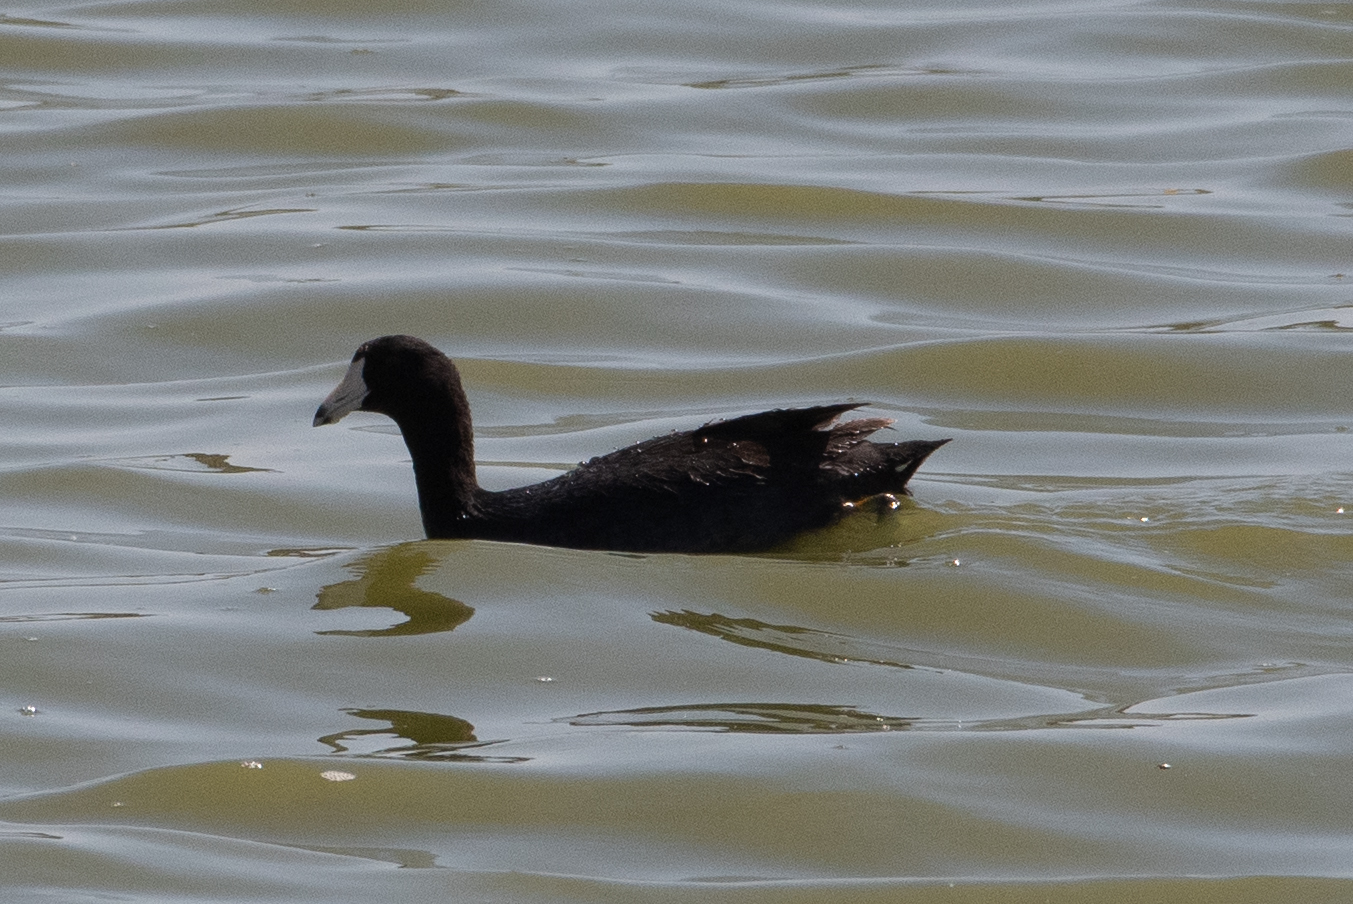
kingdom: Animalia
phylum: Chordata
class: Aves
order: Gruiformes
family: Rallidae
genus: Fulica
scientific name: Fulica americana
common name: American coot
